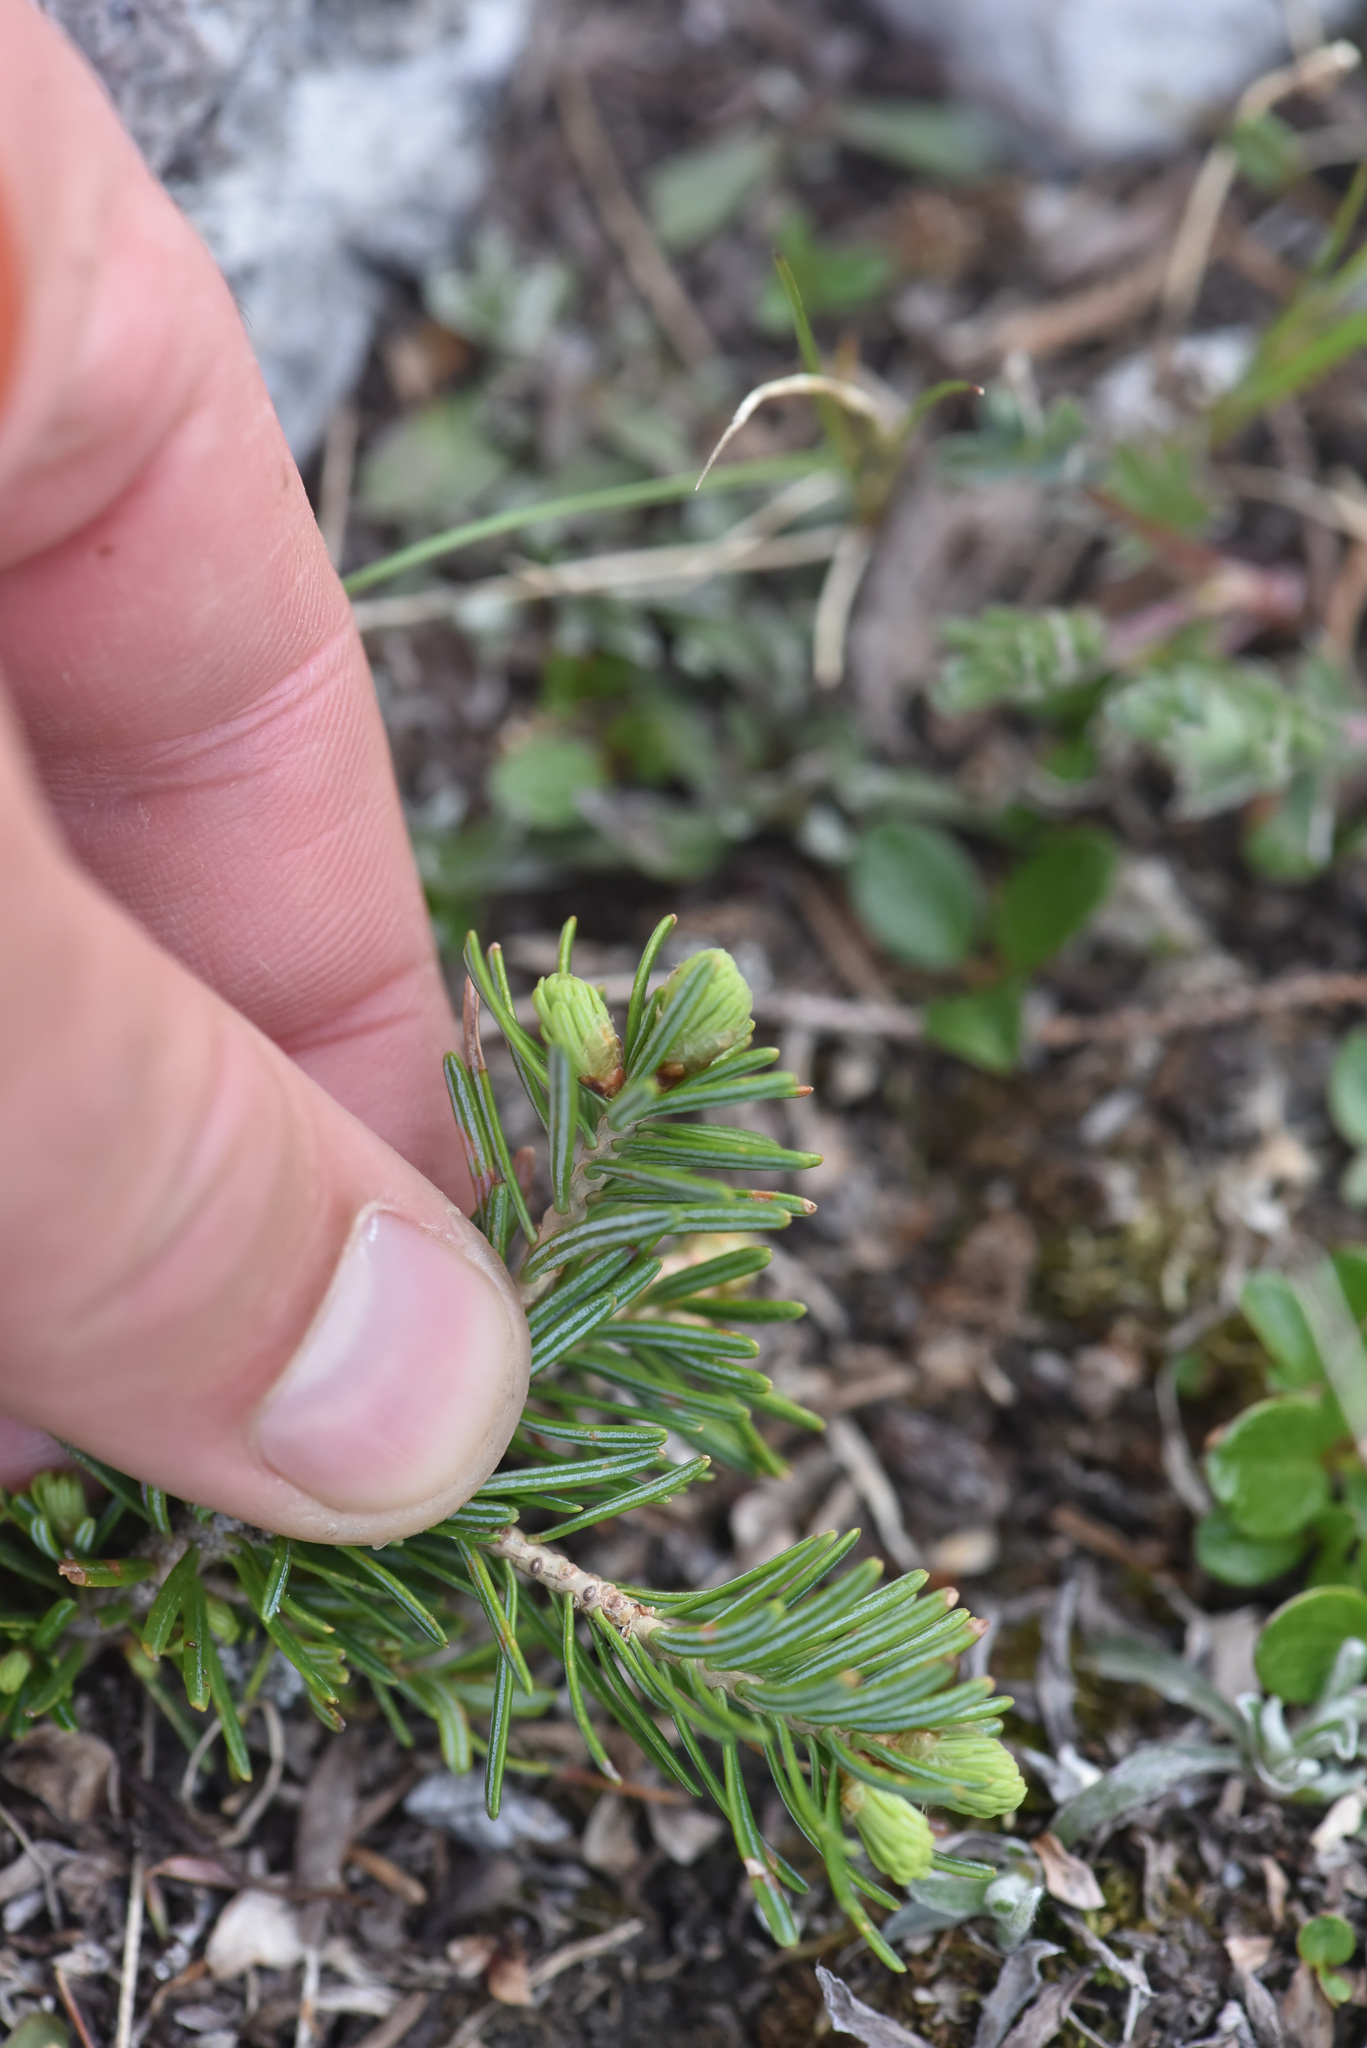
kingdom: Plantae
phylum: Tracheophyta
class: Pinopsida
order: Pinales
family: Pinaceae
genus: Abies
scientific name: Abies lasiocarpa
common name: Subalpine fir
